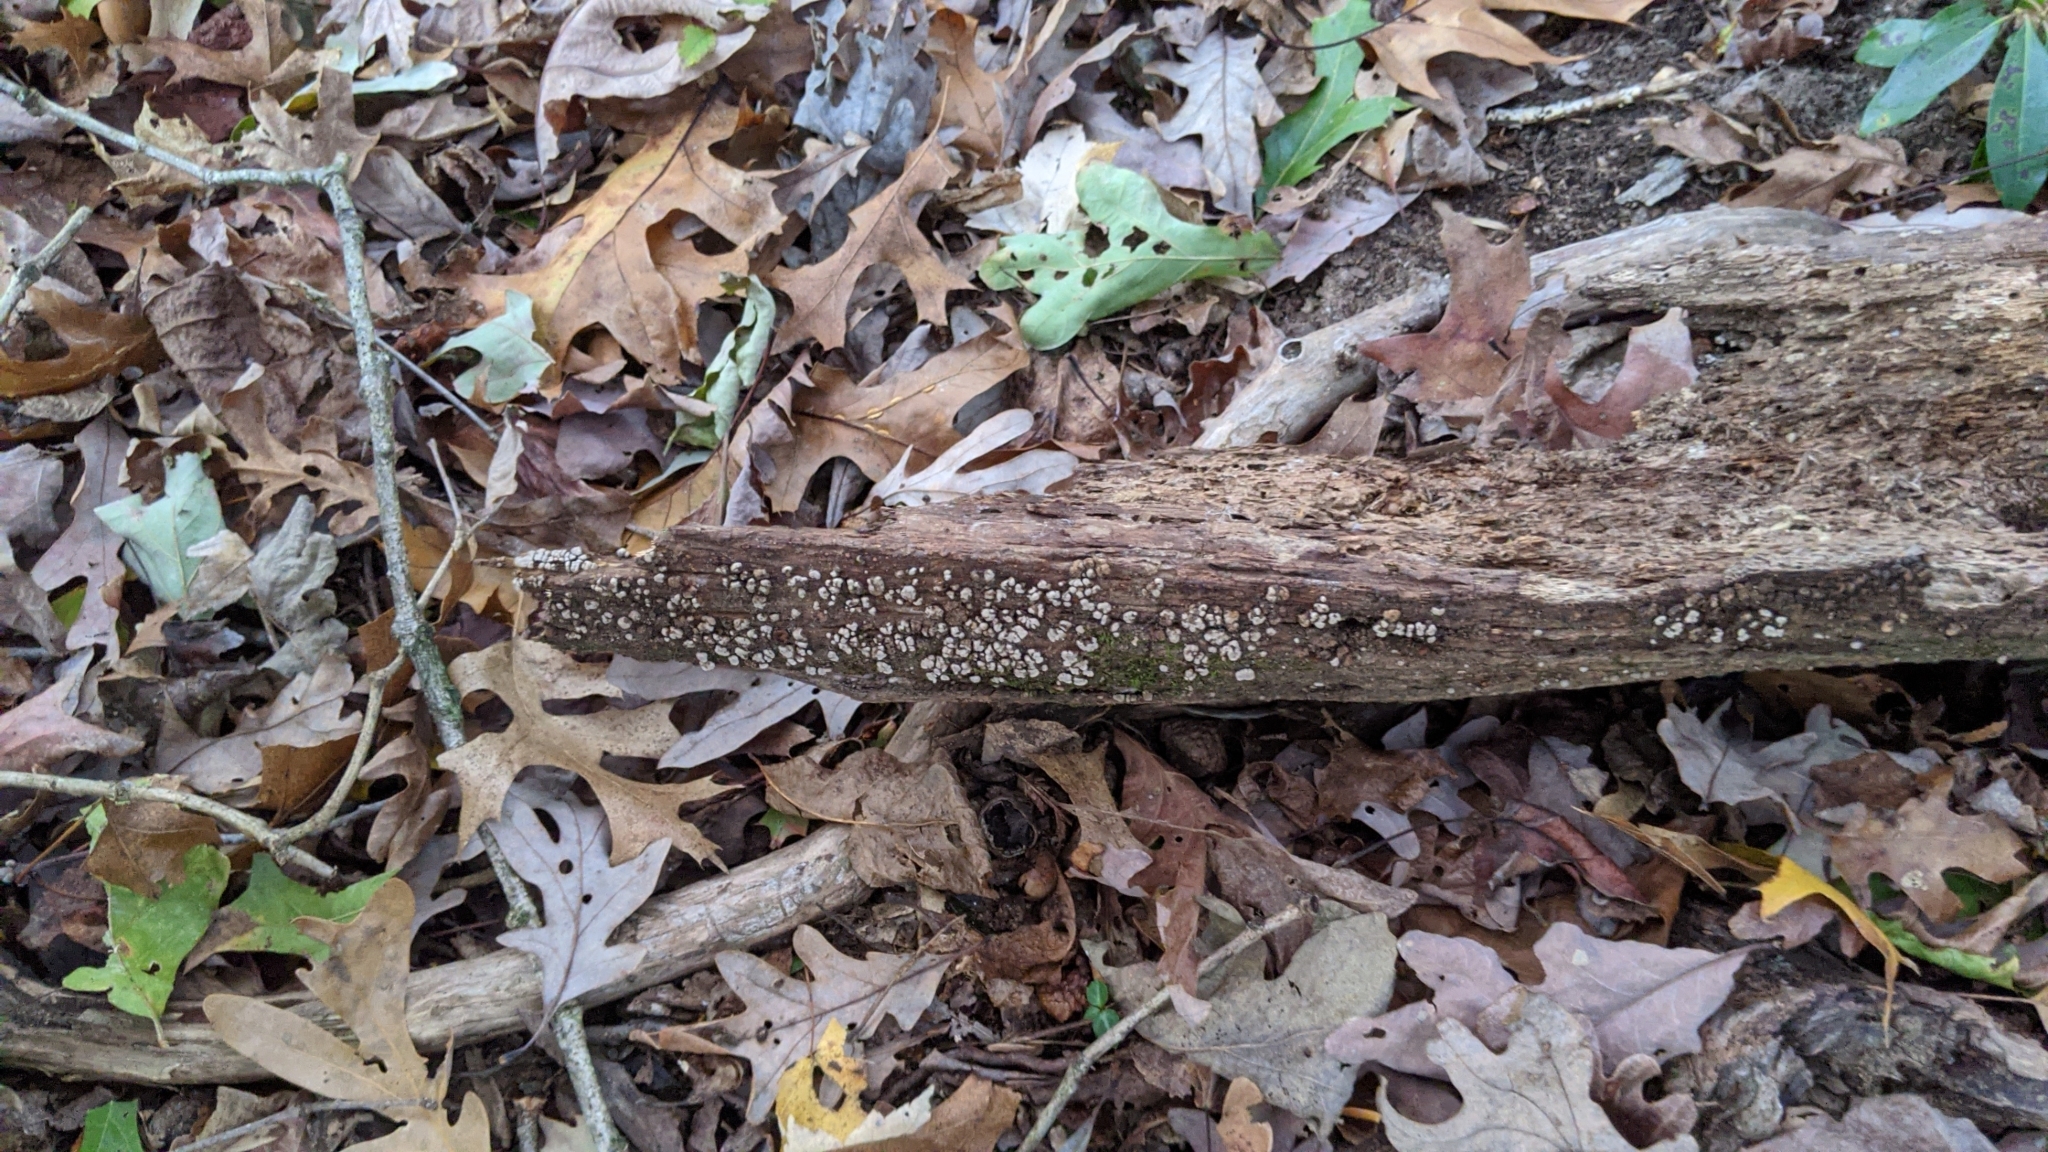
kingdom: Fungi
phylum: Basidiomycota
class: Agaricomycetes
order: Russulales
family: Stereaceae
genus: Xylobolus
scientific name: Xylobolus frustulatus
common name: Ceramic parchment
